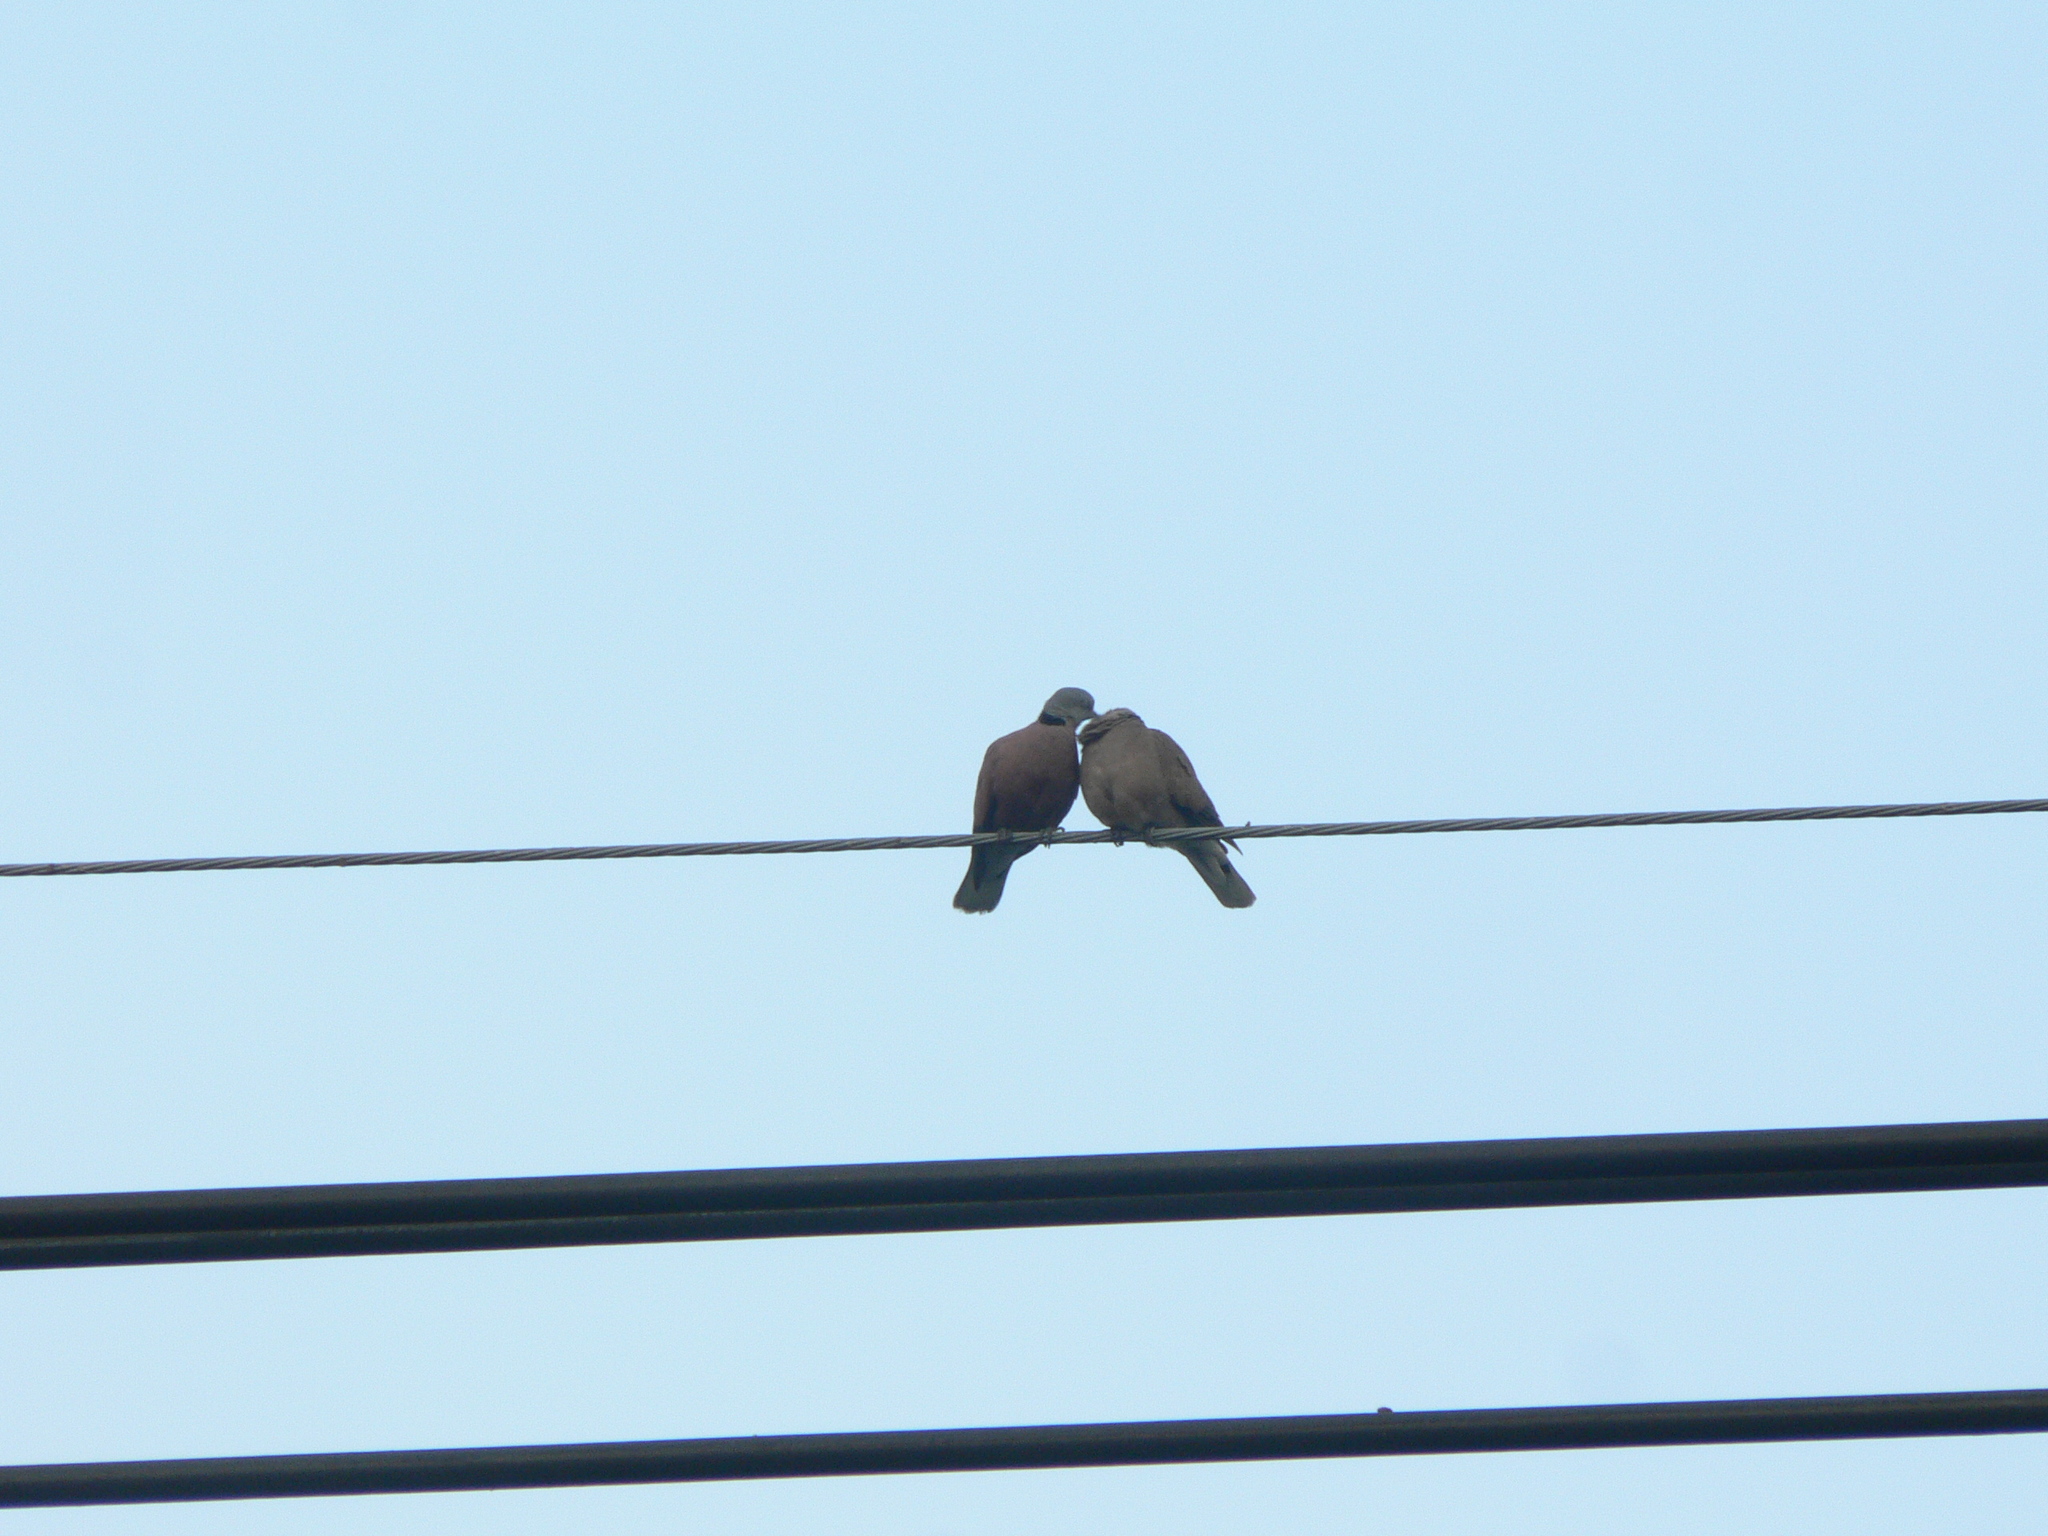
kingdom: Animalia
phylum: Chordata
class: Aves
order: Columbiformes
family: Columbidae
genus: Streptopelia
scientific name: Streptopelia tranquebarica
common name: Red turtle dove
